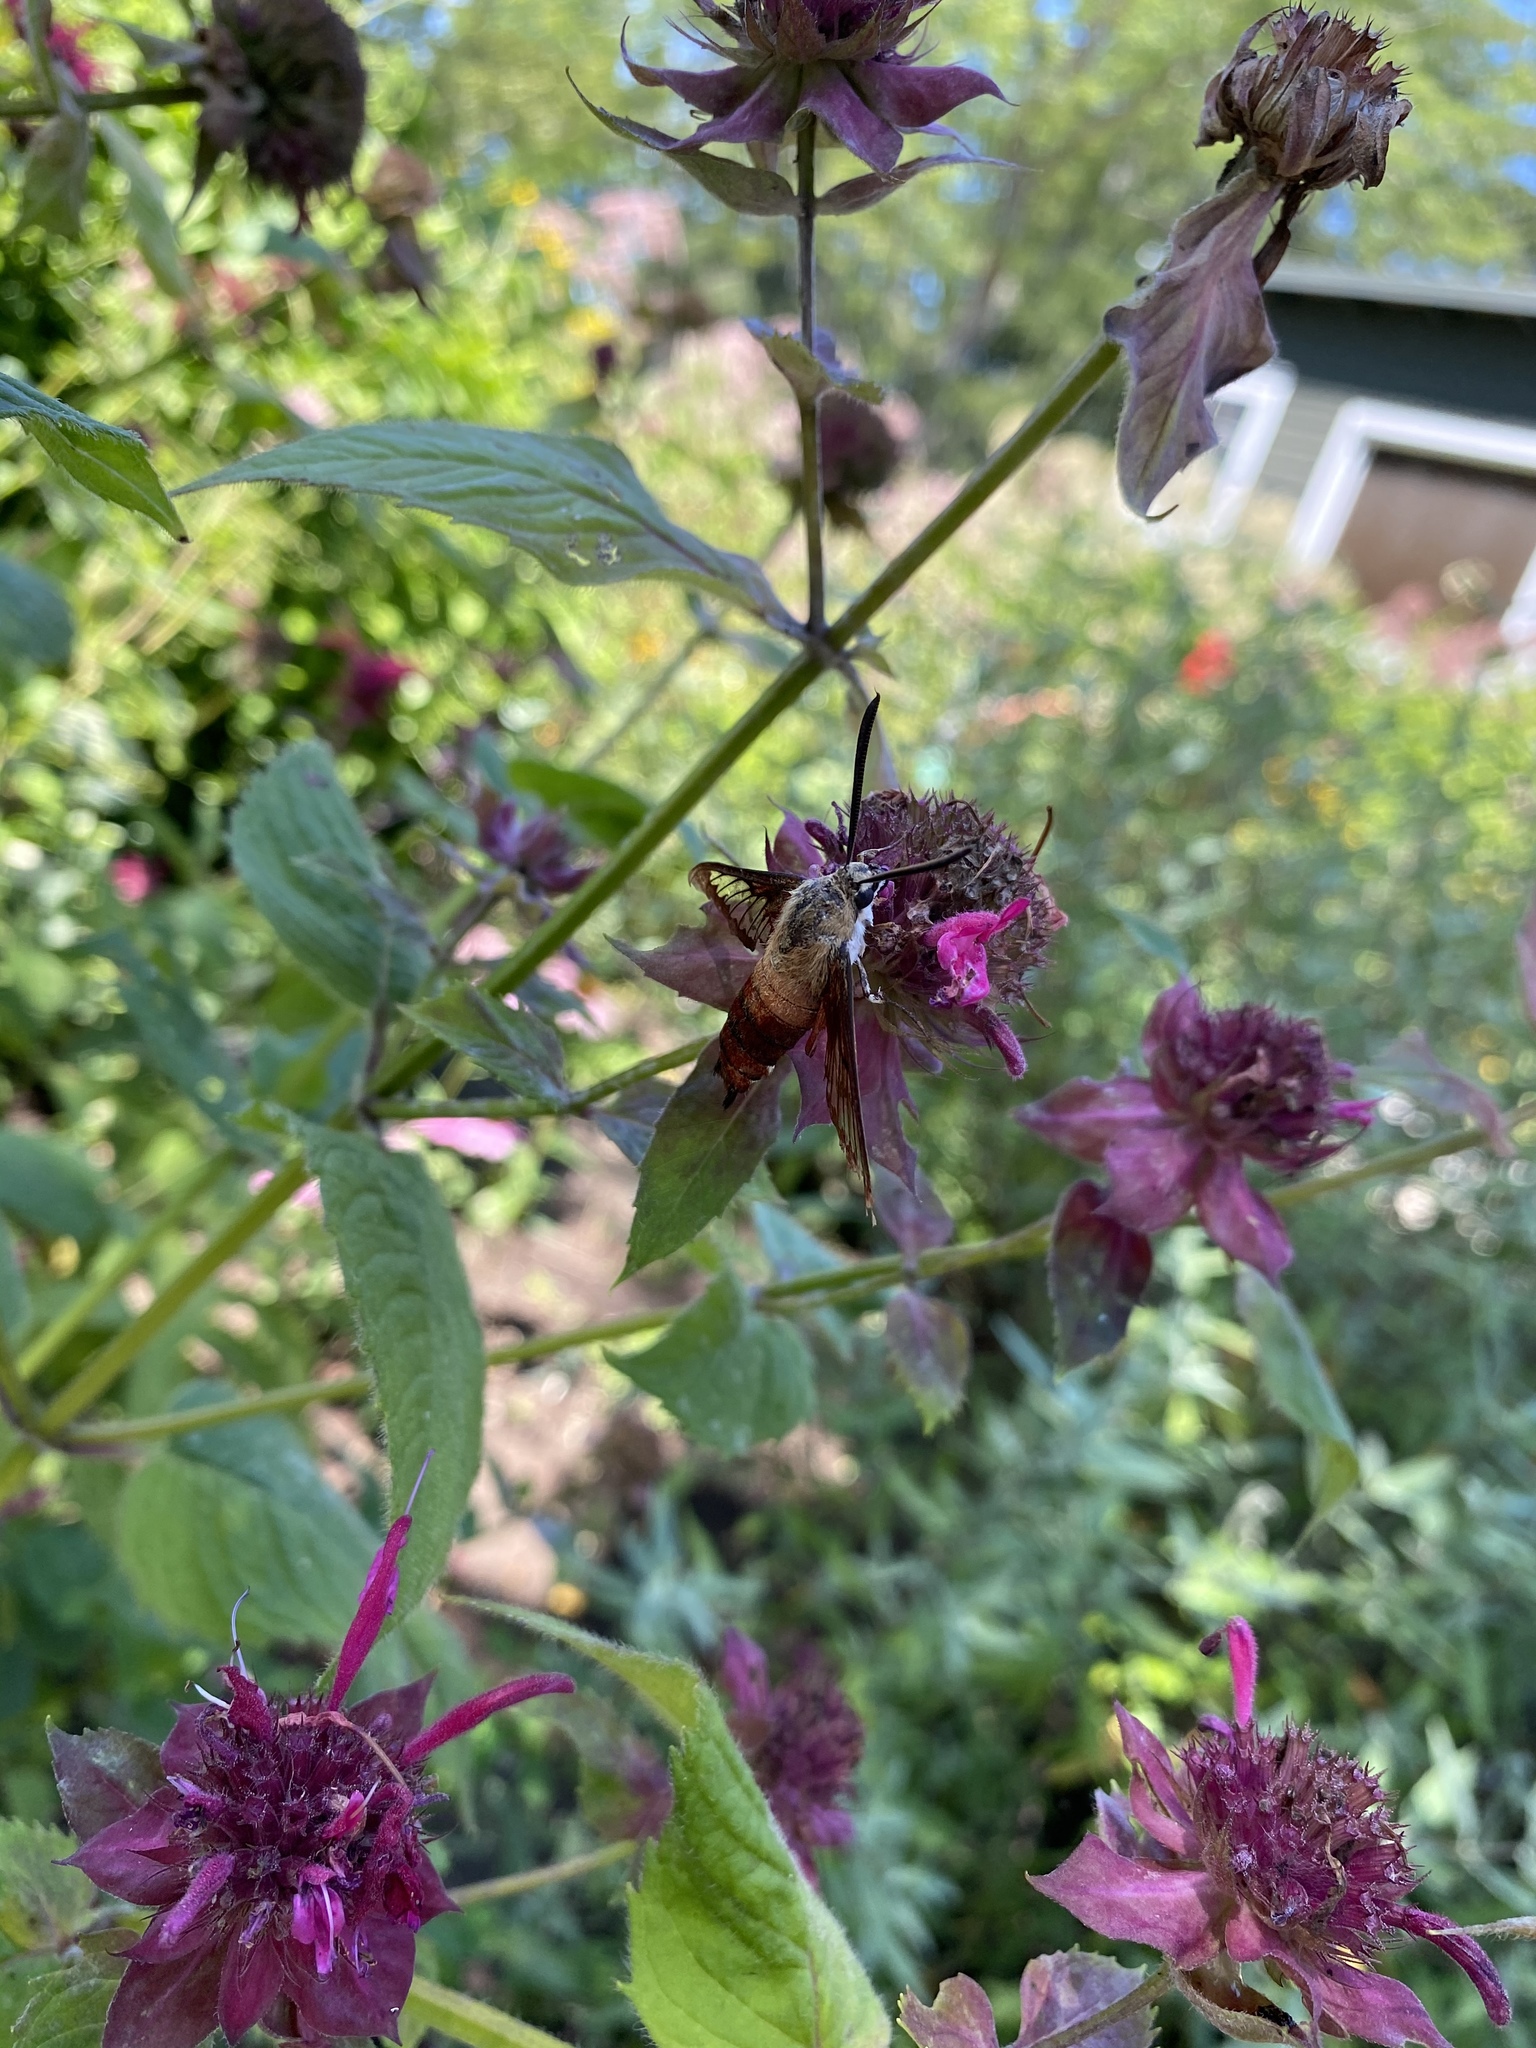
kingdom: Animalia
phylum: Arthropoda
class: Insecta
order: Lepidoptera
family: Sphingidae
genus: Hemaris
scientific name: Hemaris thysbe
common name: Common clear-wing
